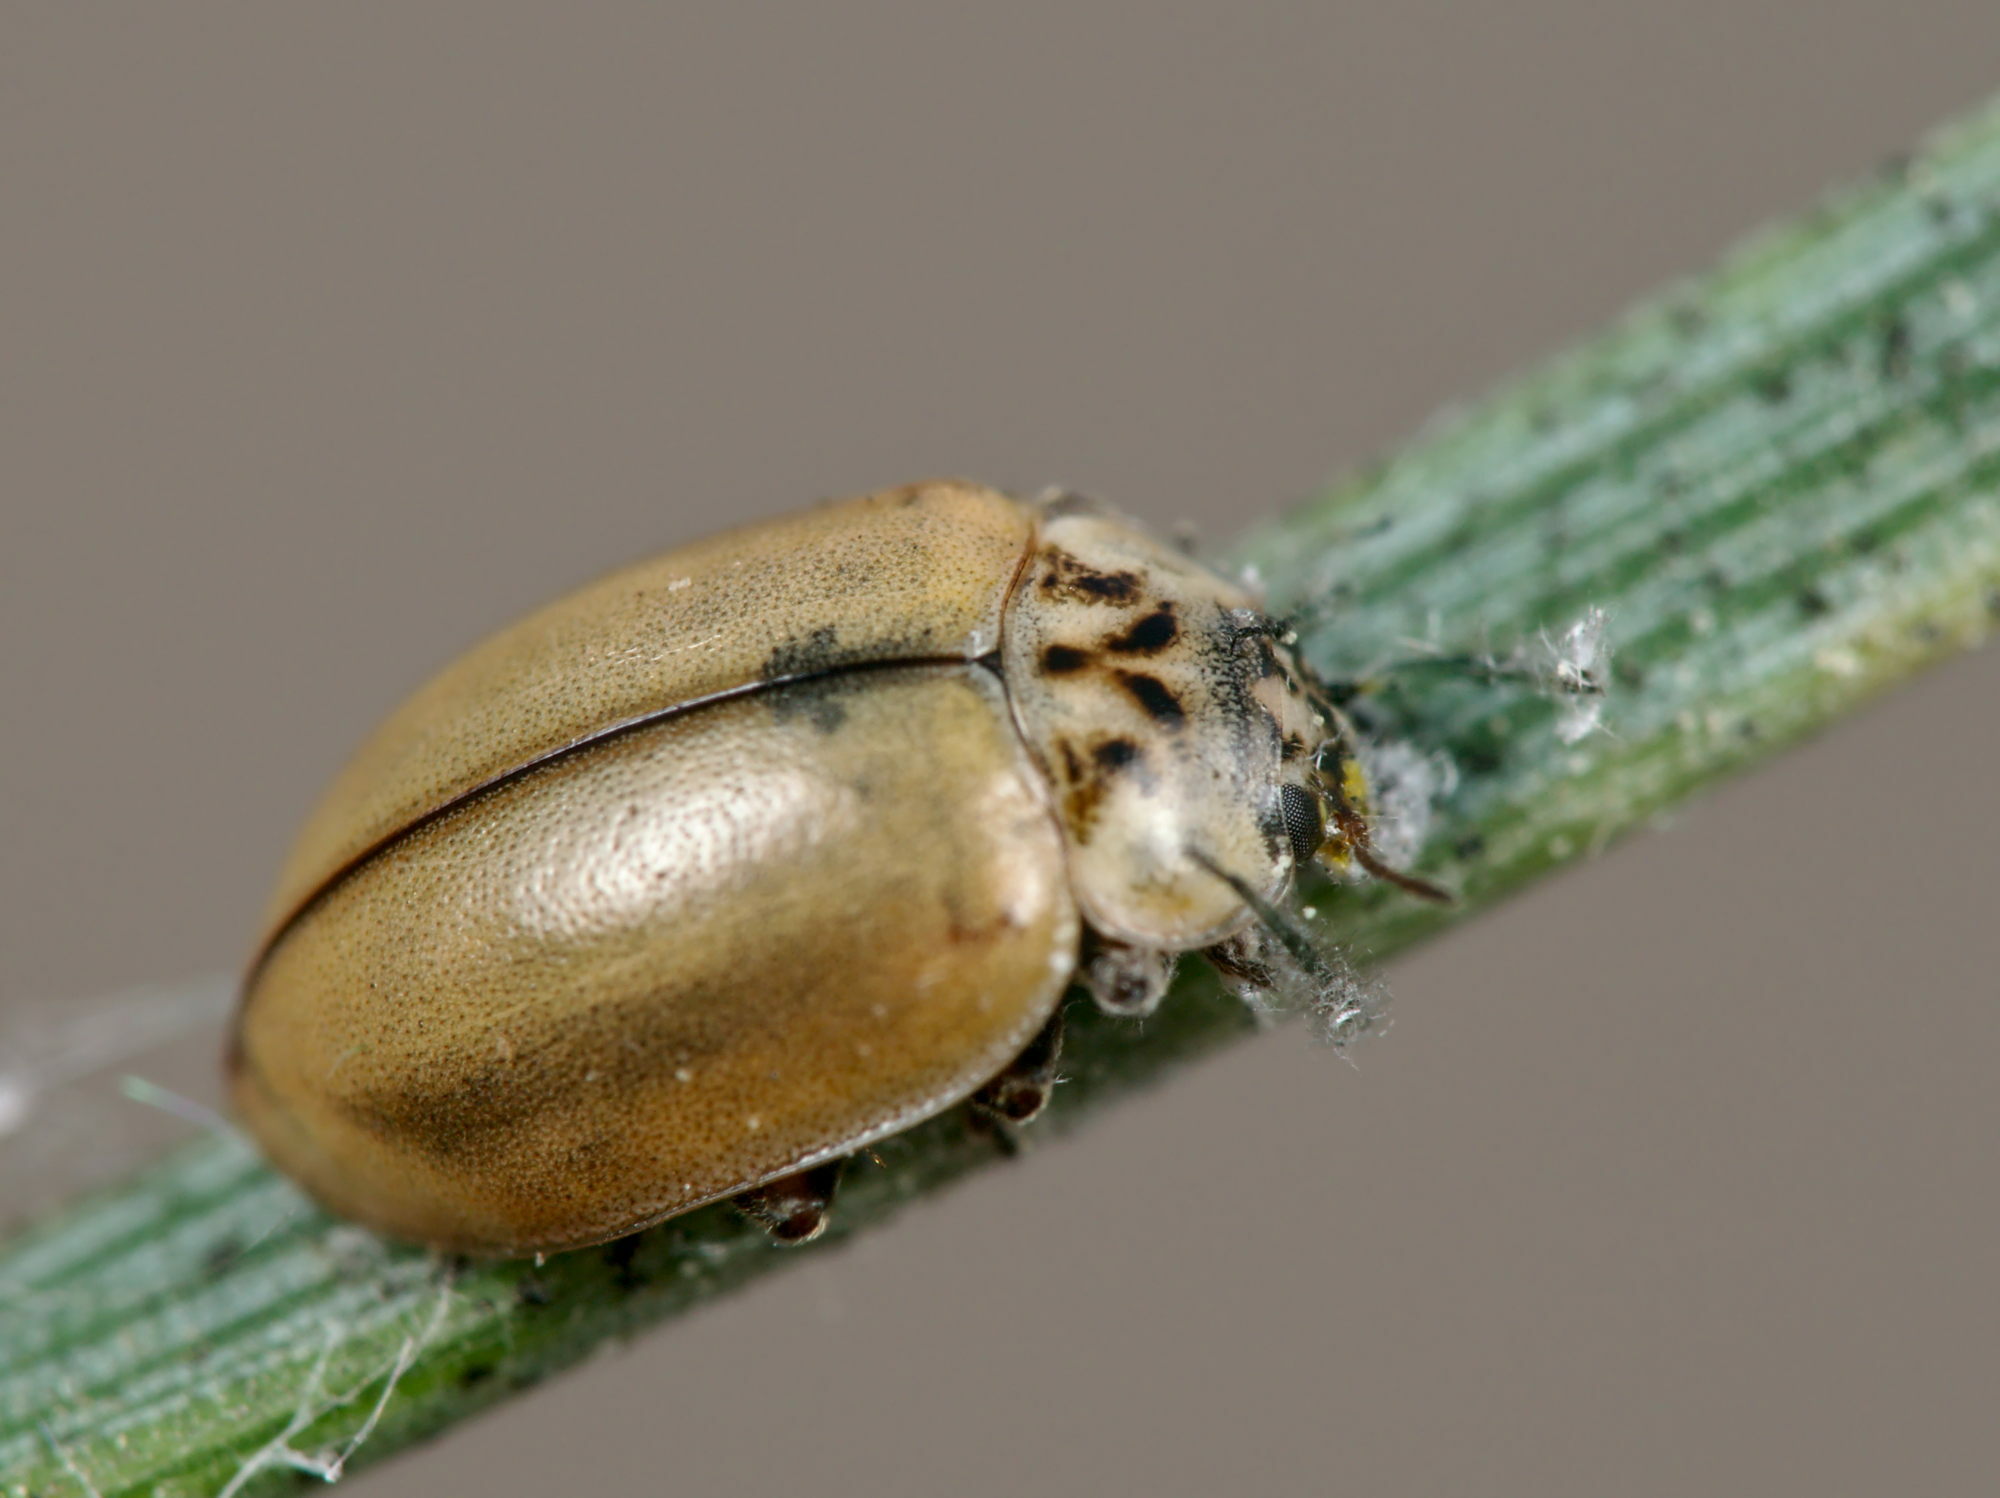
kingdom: Animalia
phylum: Arthropoda
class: Insecta
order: Coleoptera
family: Coccinellidae
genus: Aphidecta
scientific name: Aphidecta obliterata
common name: Larch ladybird
